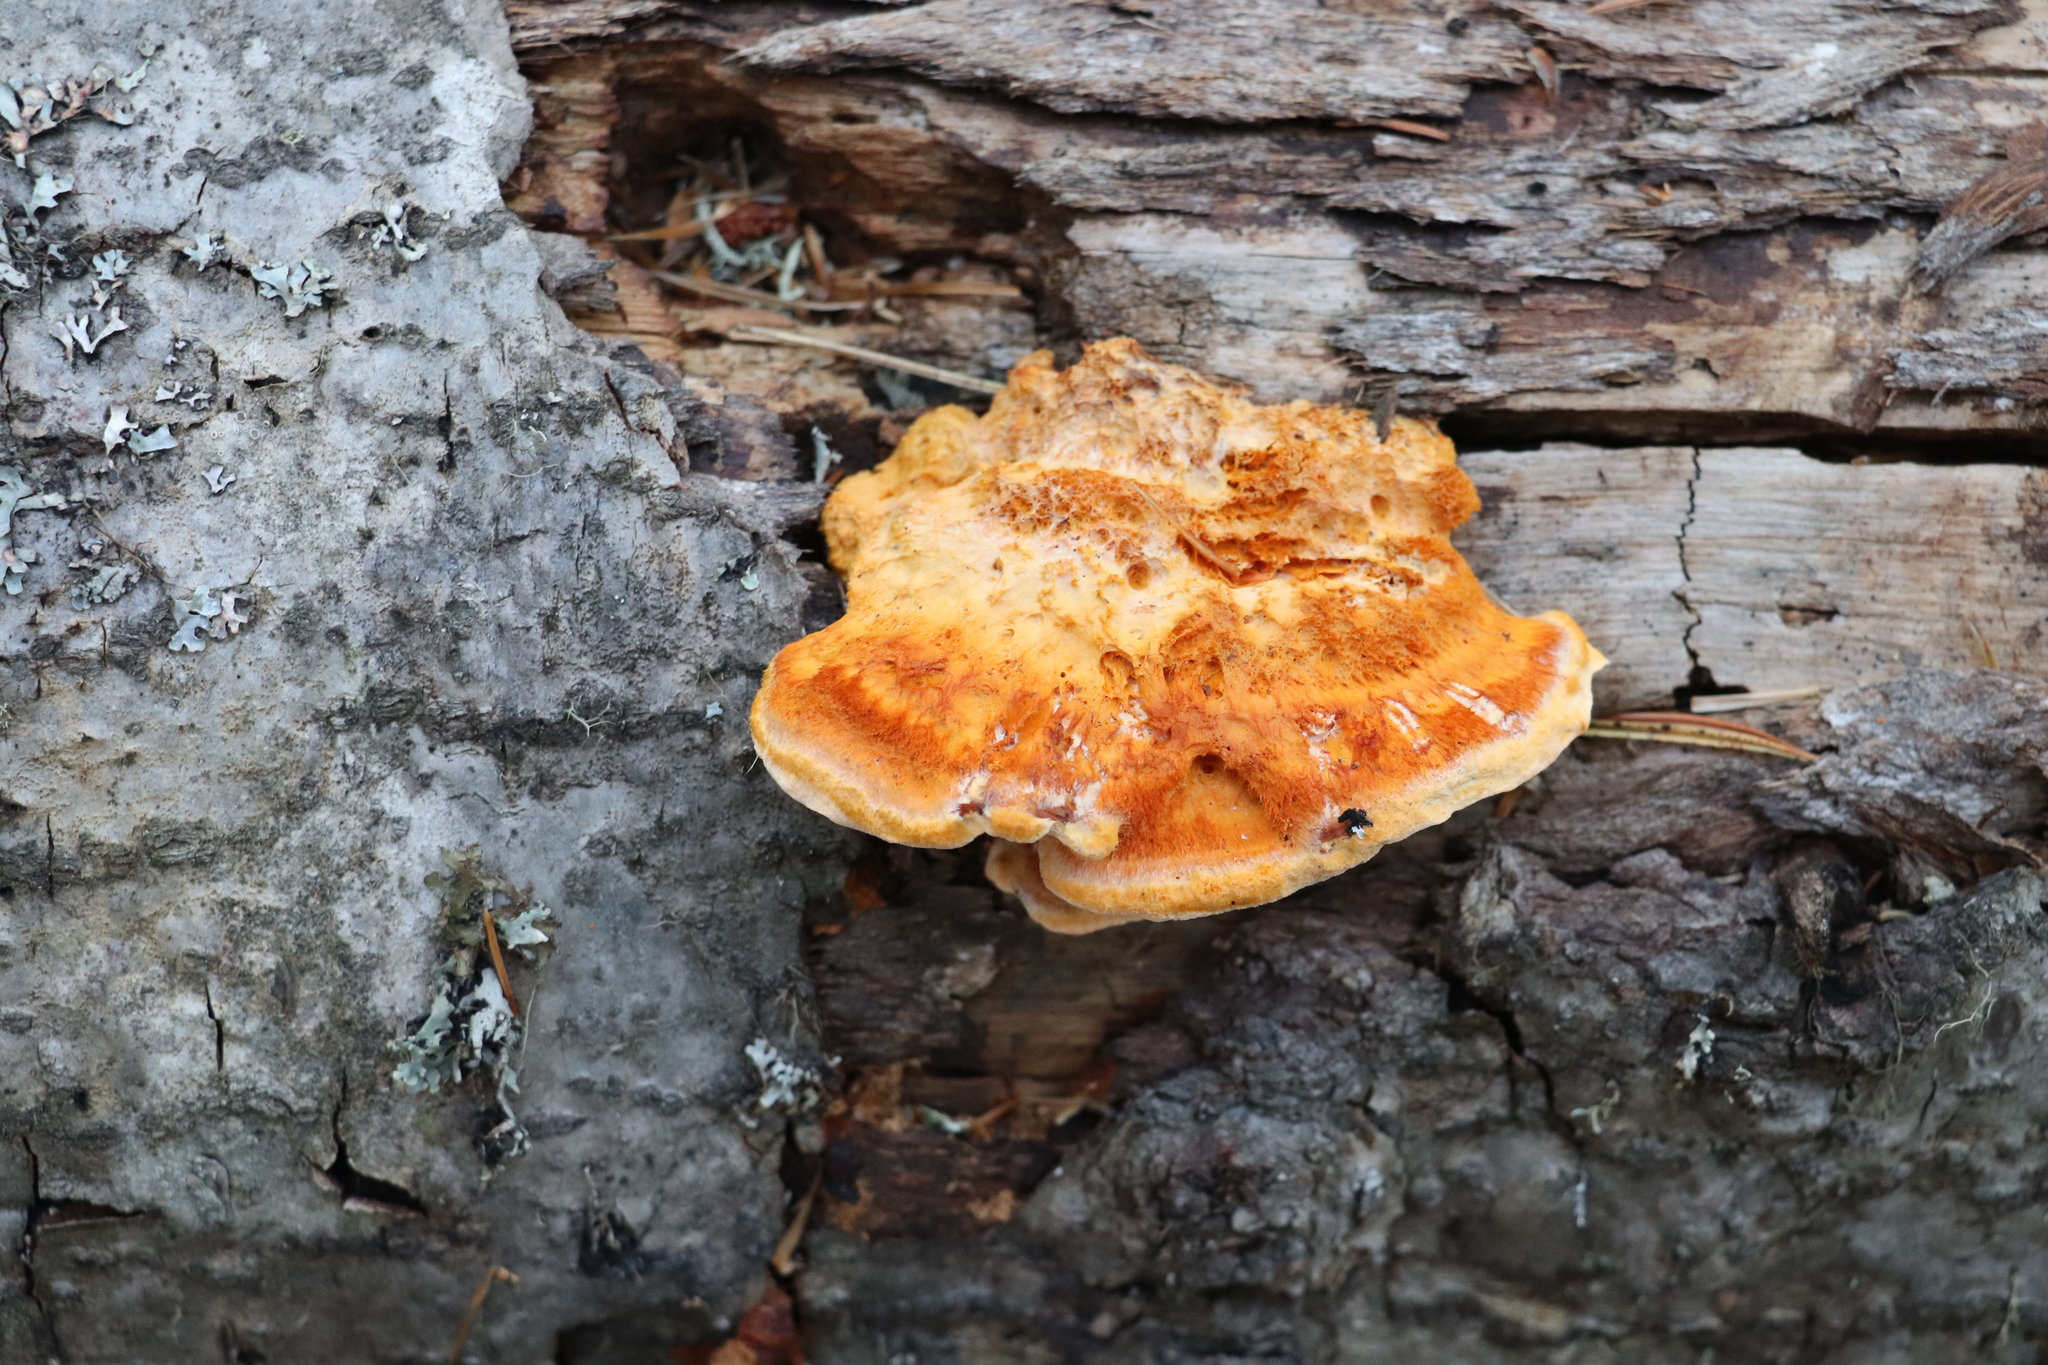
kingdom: Fungi
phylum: Basidiomycota
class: Agaricomycetes
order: Polyporales
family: Pycnoporellaceae
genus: Pycnoporellus
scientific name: Pycnoporellus fulgens
